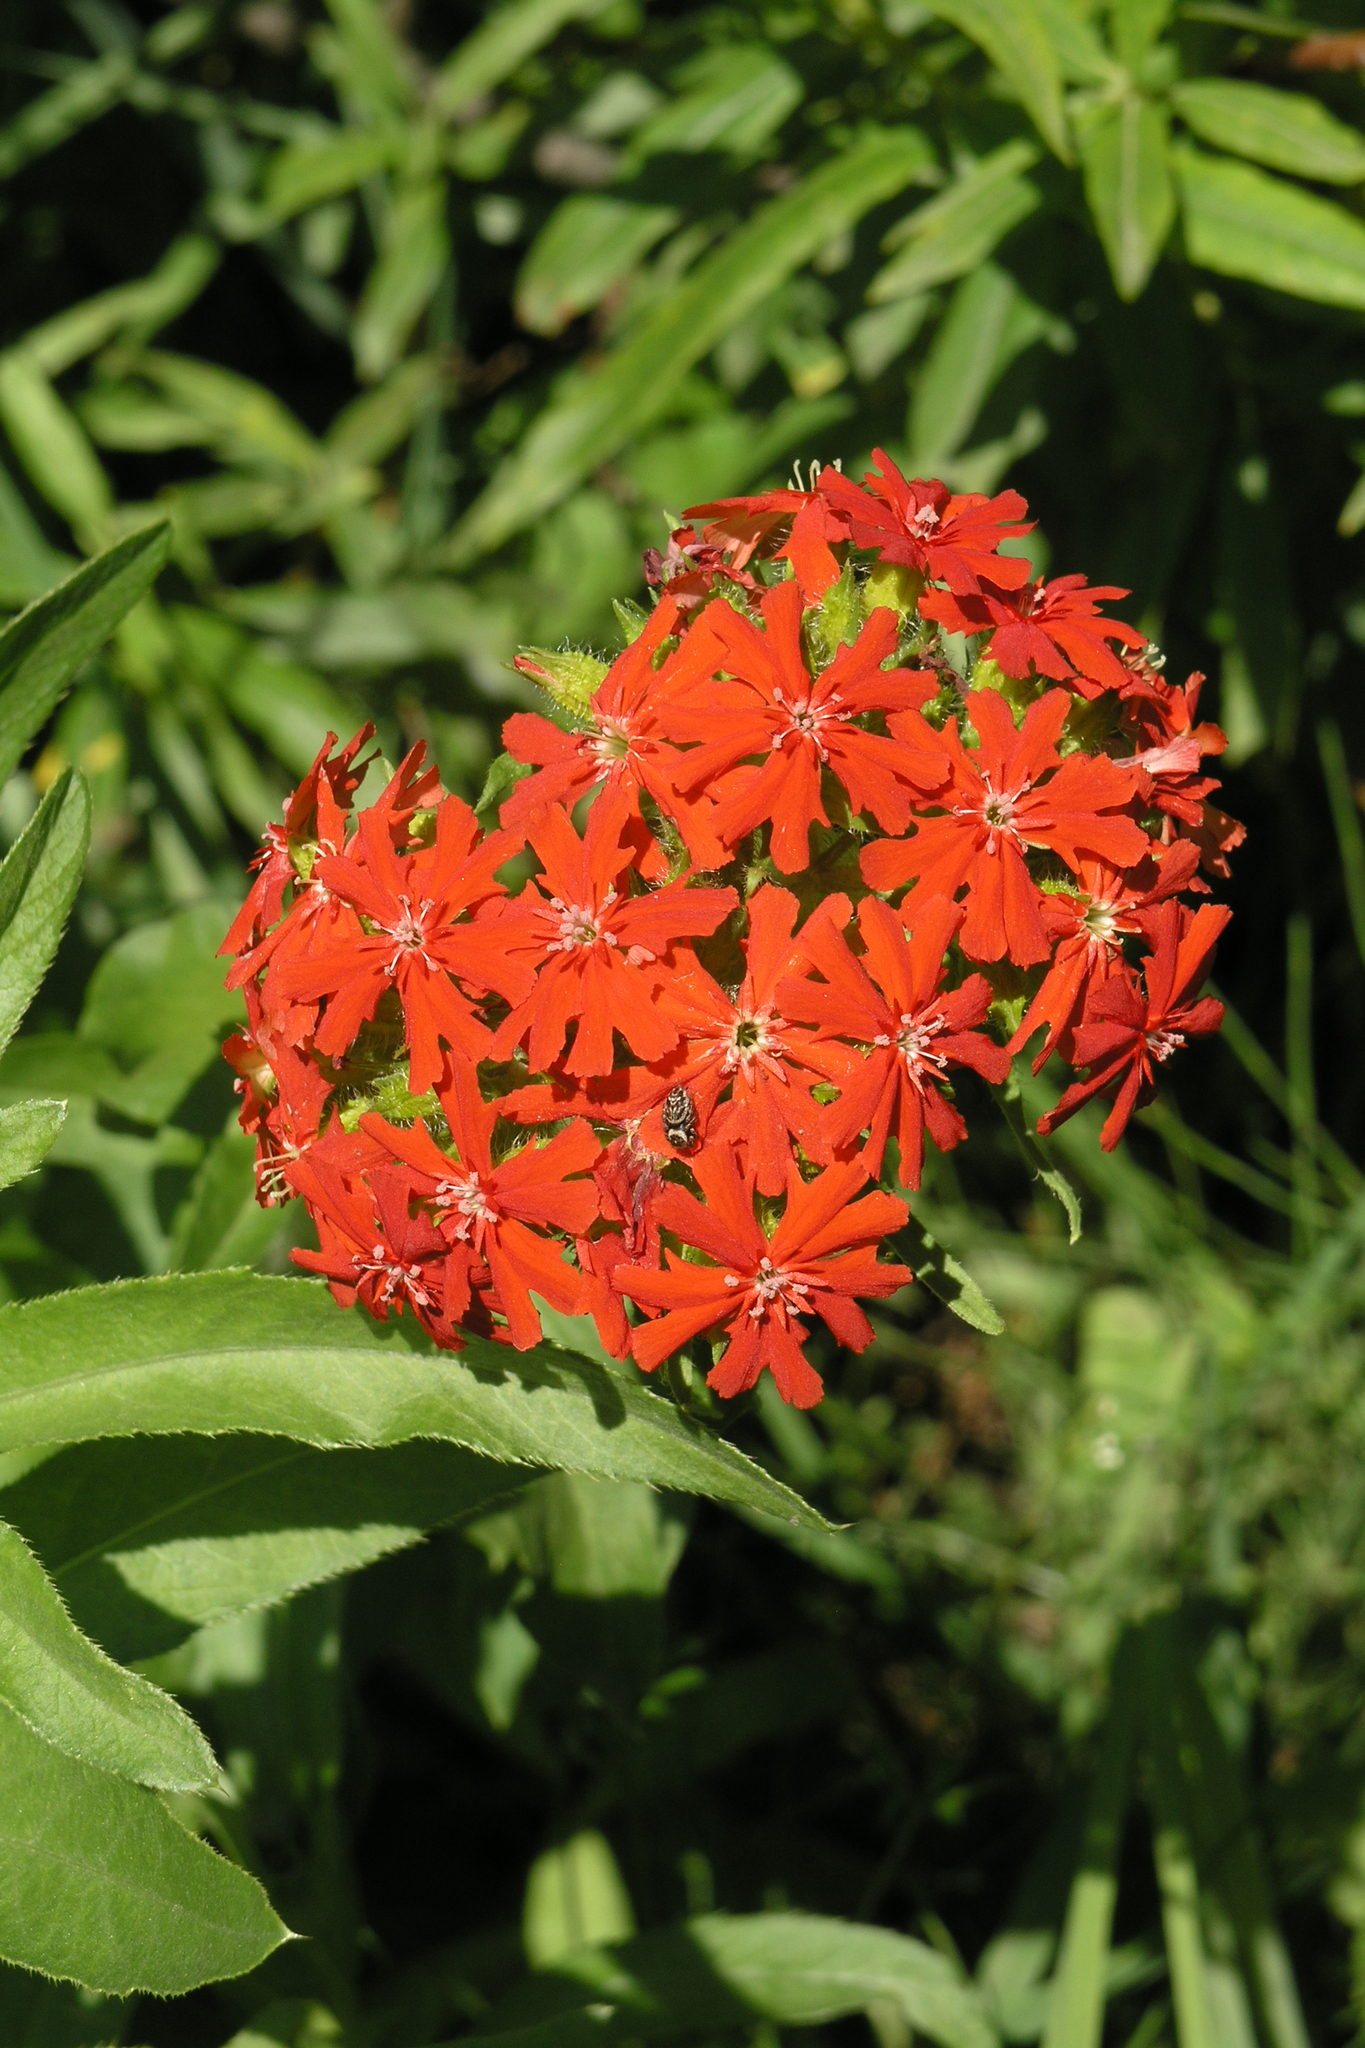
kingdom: Plantae
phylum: Tracheophyta
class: Magnoliopsida
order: Caryophyllales
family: Caryophyllaceae
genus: Silene
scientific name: Silene chalcedonica
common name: Maltese-cross
